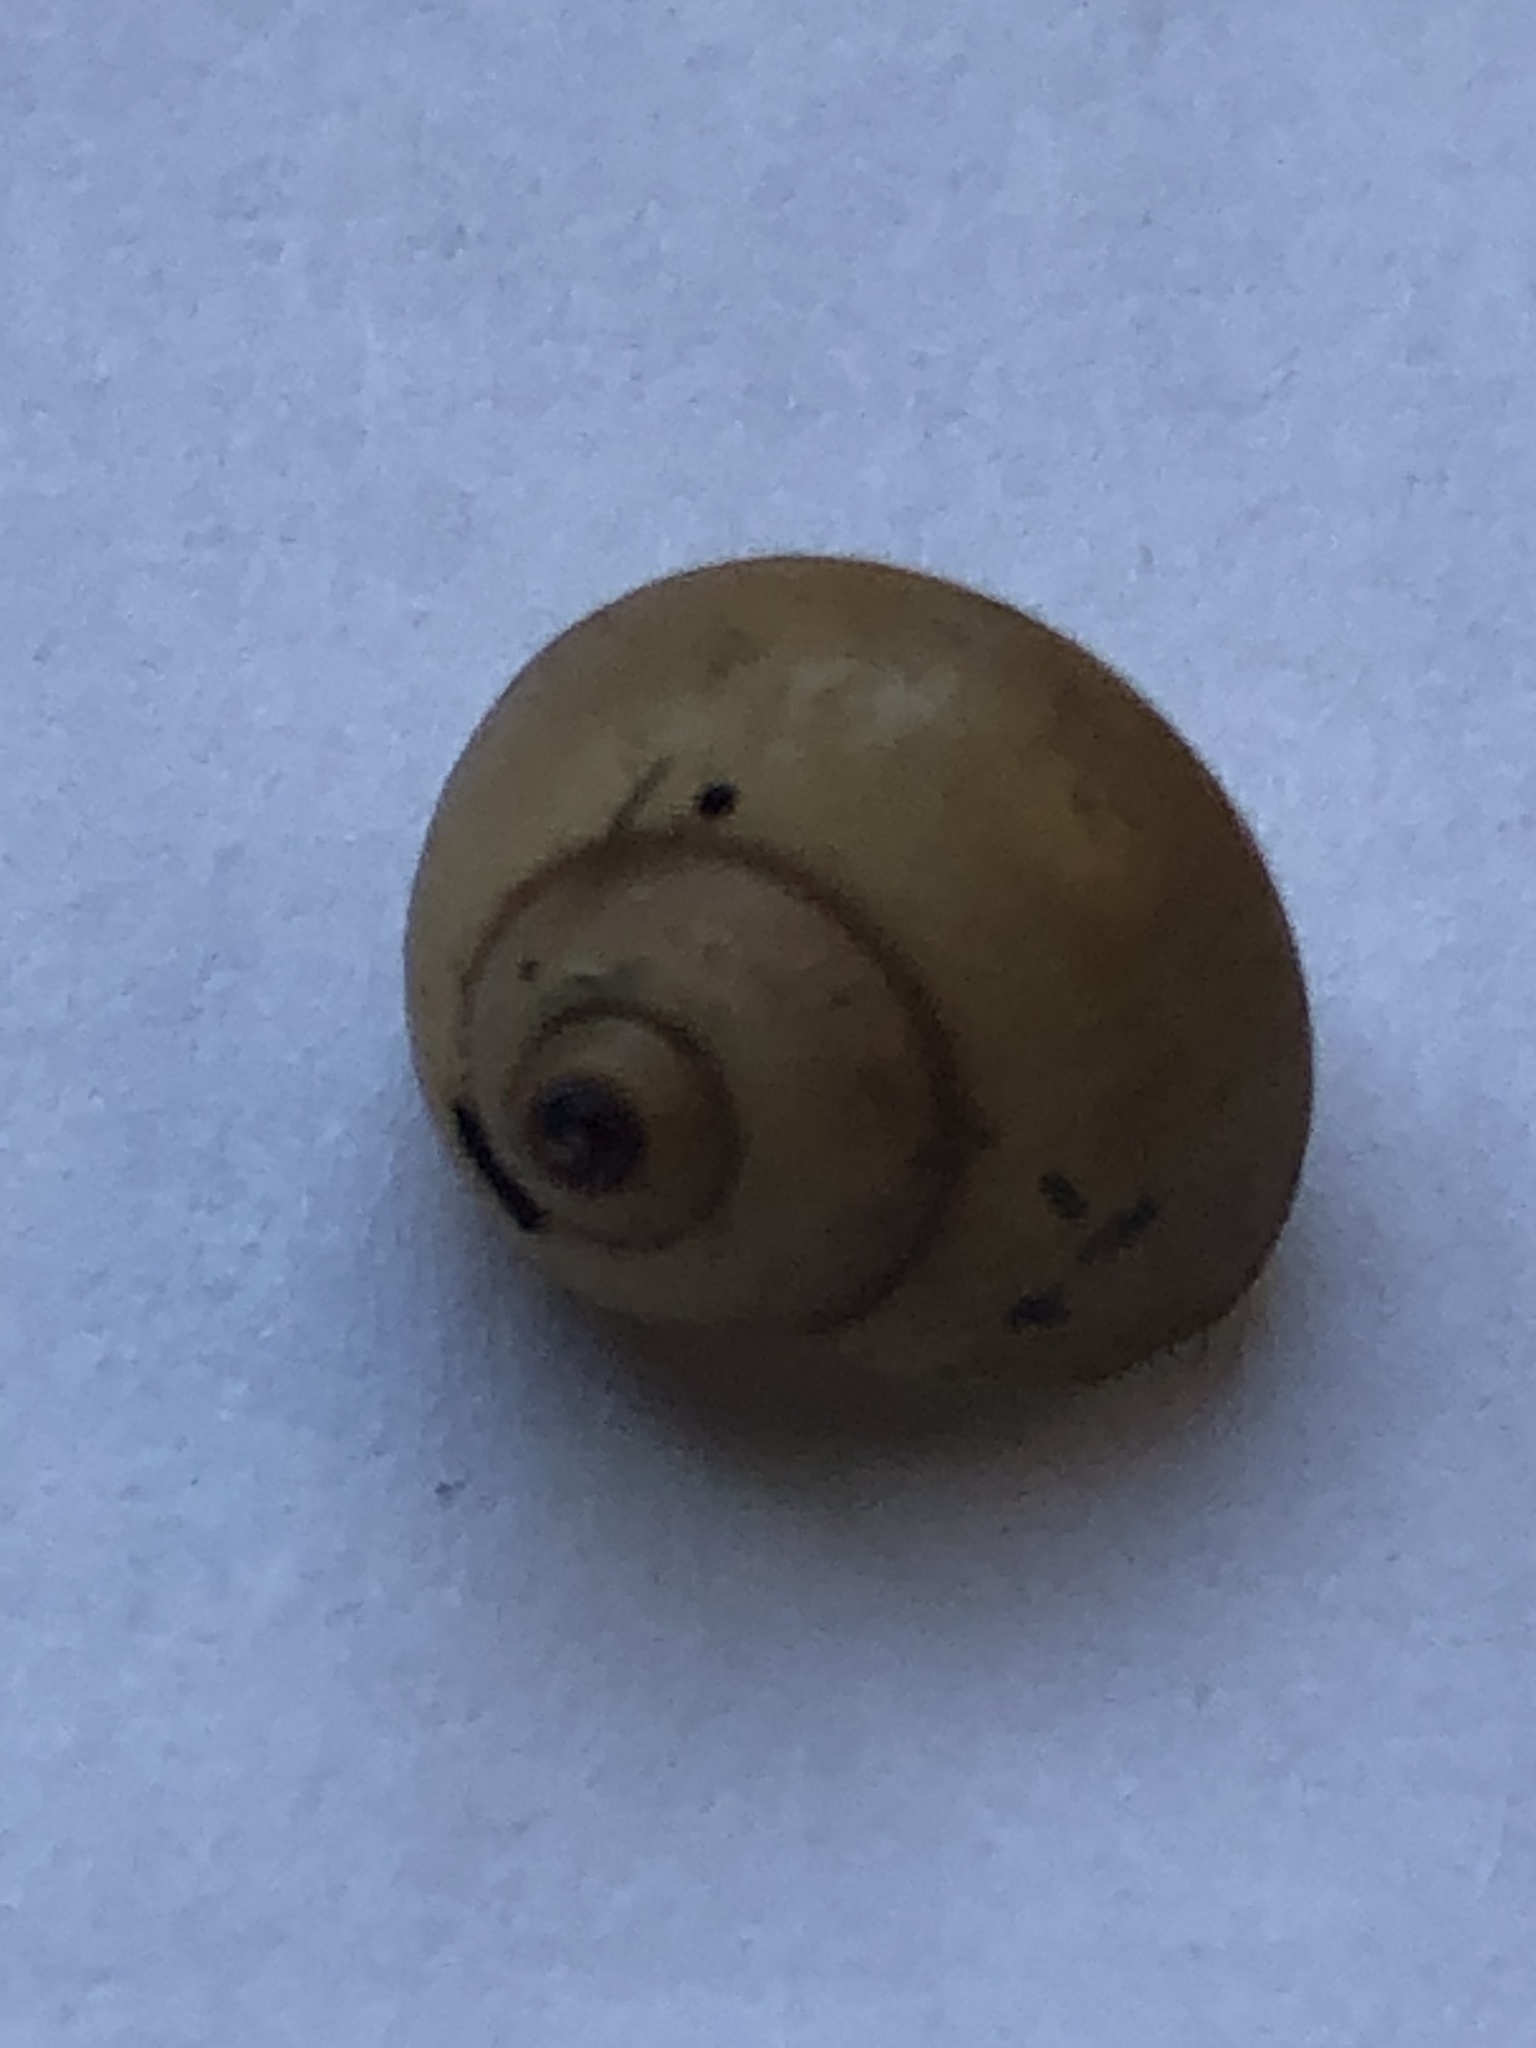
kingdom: Animalia
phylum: Mollusca
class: Gastropoda
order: Architaenioglossa
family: Viviparidae
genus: Cipangopaludina
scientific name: Cipangopaludina chinensis
